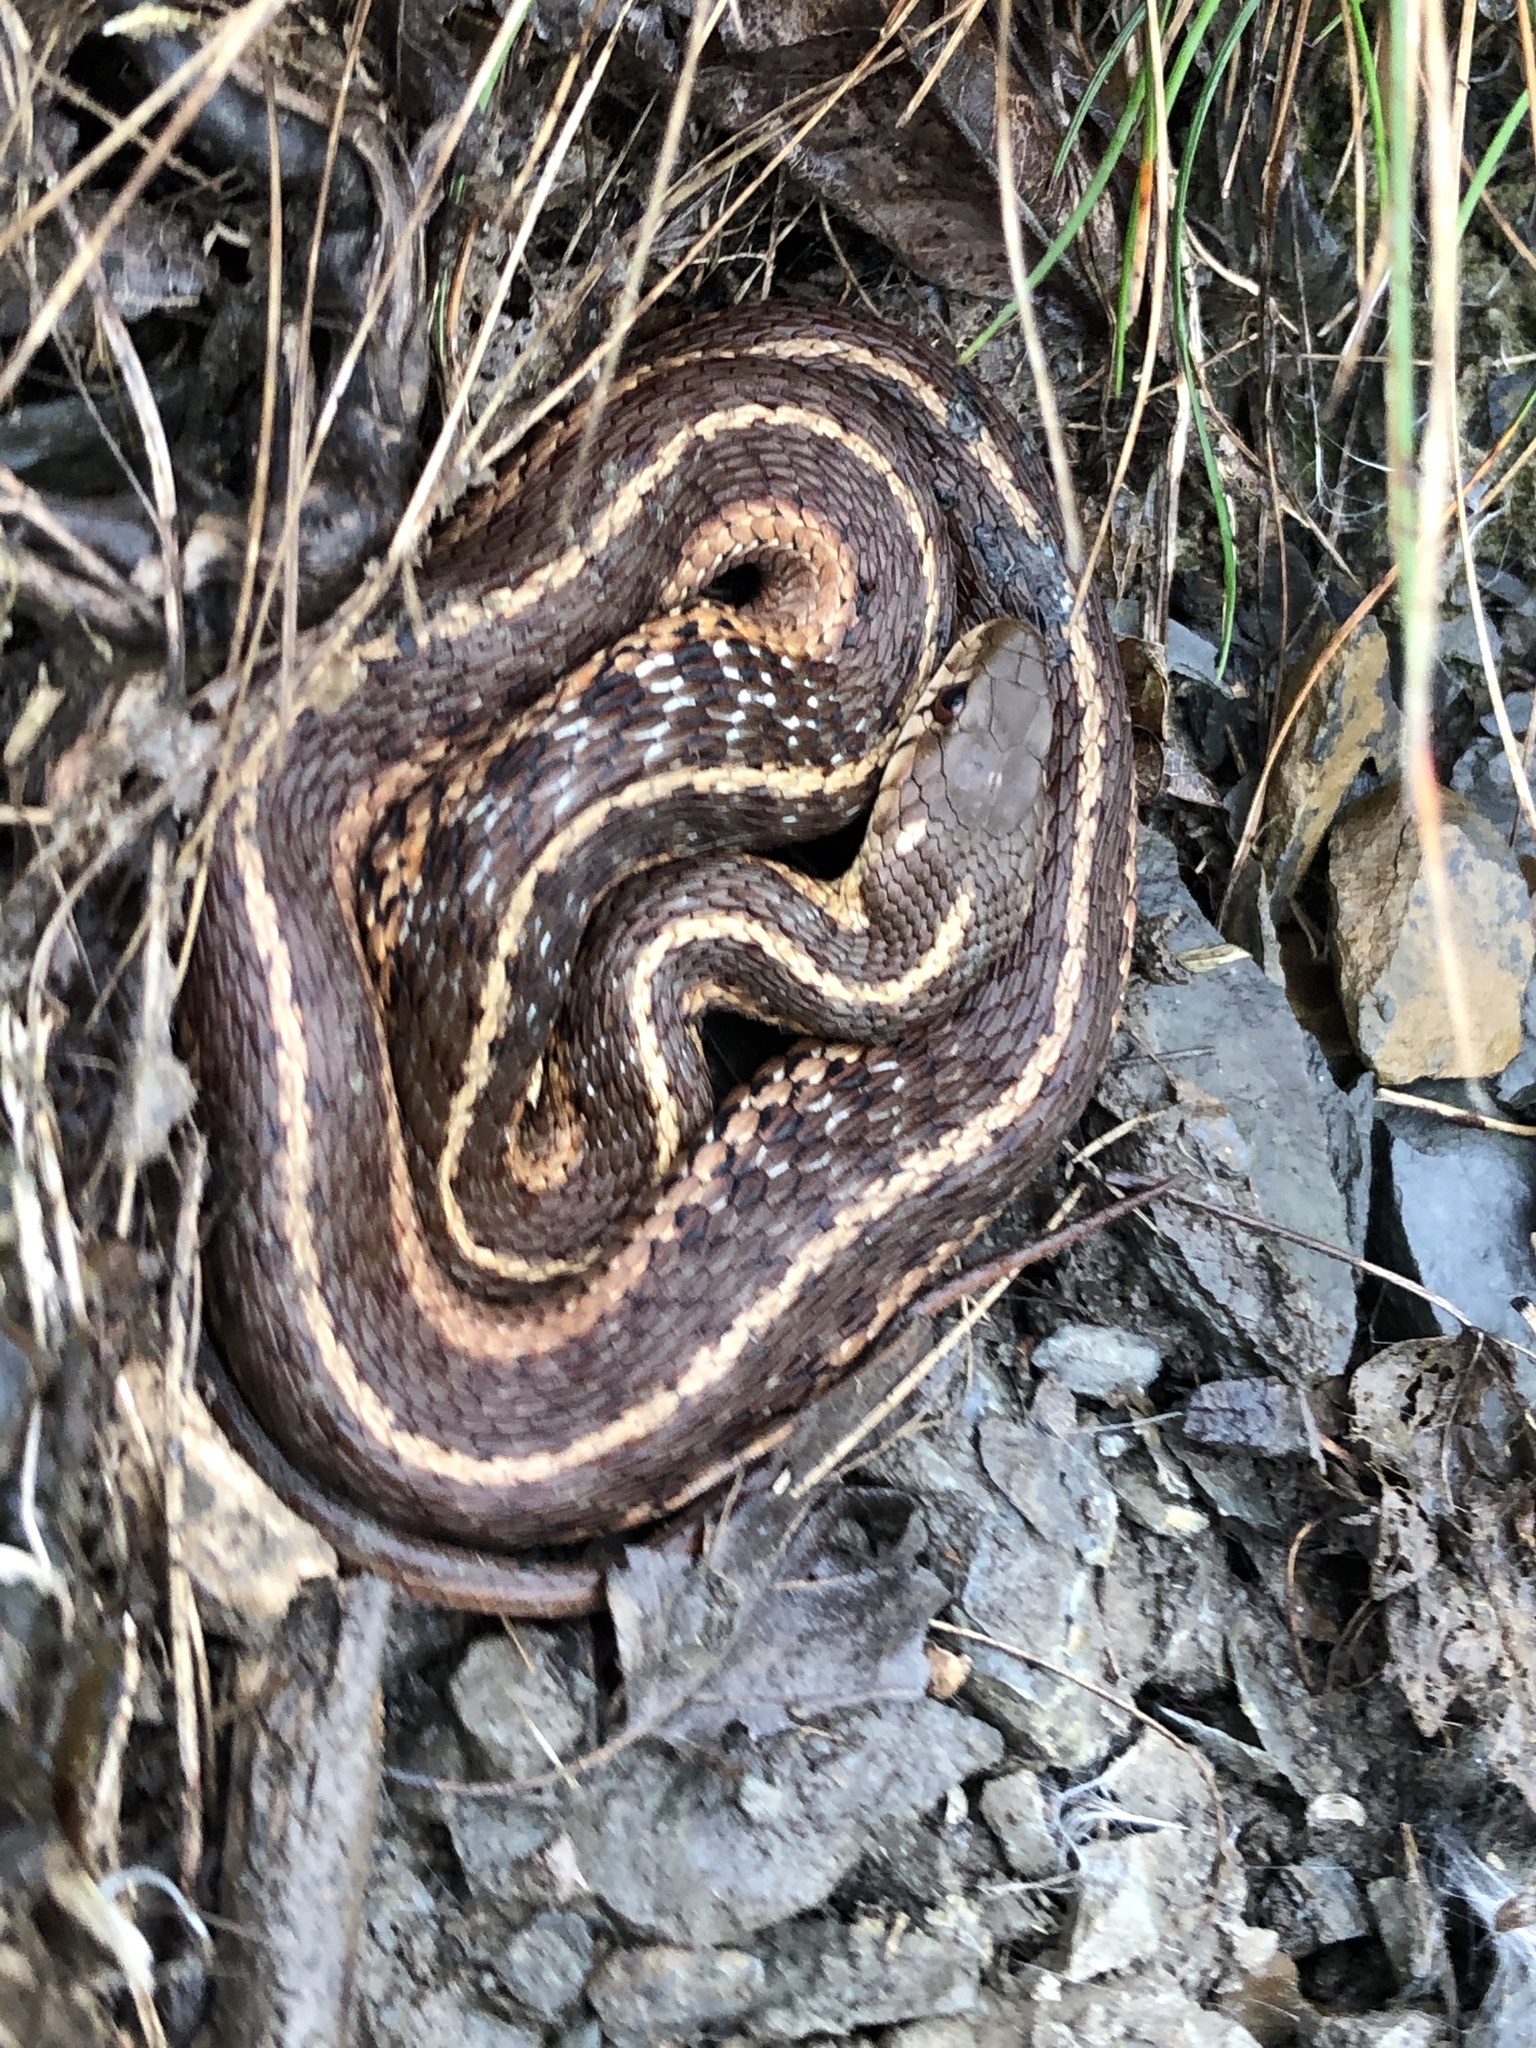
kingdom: Animalia
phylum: Chordata
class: Squamata
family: Colubridae
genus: Thamnophis
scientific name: Thamnophis sirtalis
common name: Common garter snake
